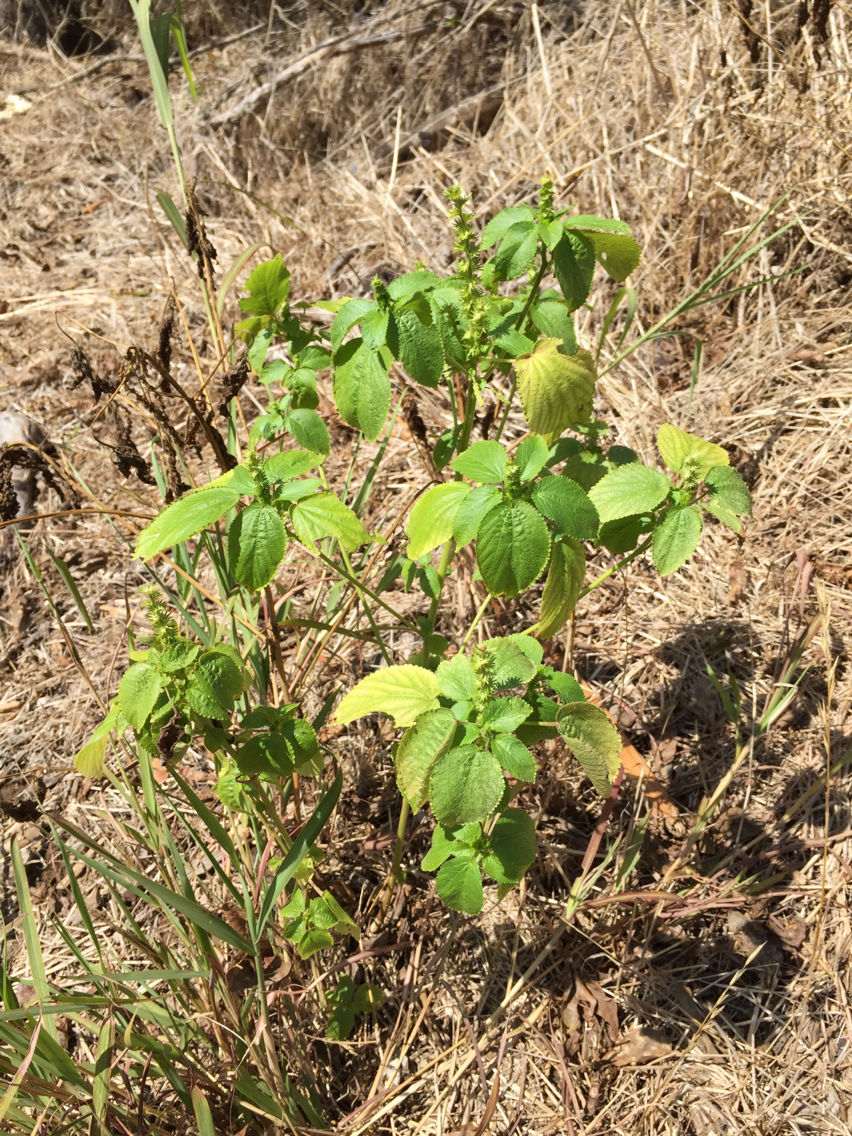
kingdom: Plantae
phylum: Tracheophyta
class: Magnoliopsida
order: Malpighiales
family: Euphorbiaceae
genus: Acalypha
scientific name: Acalypha ostryifolia
